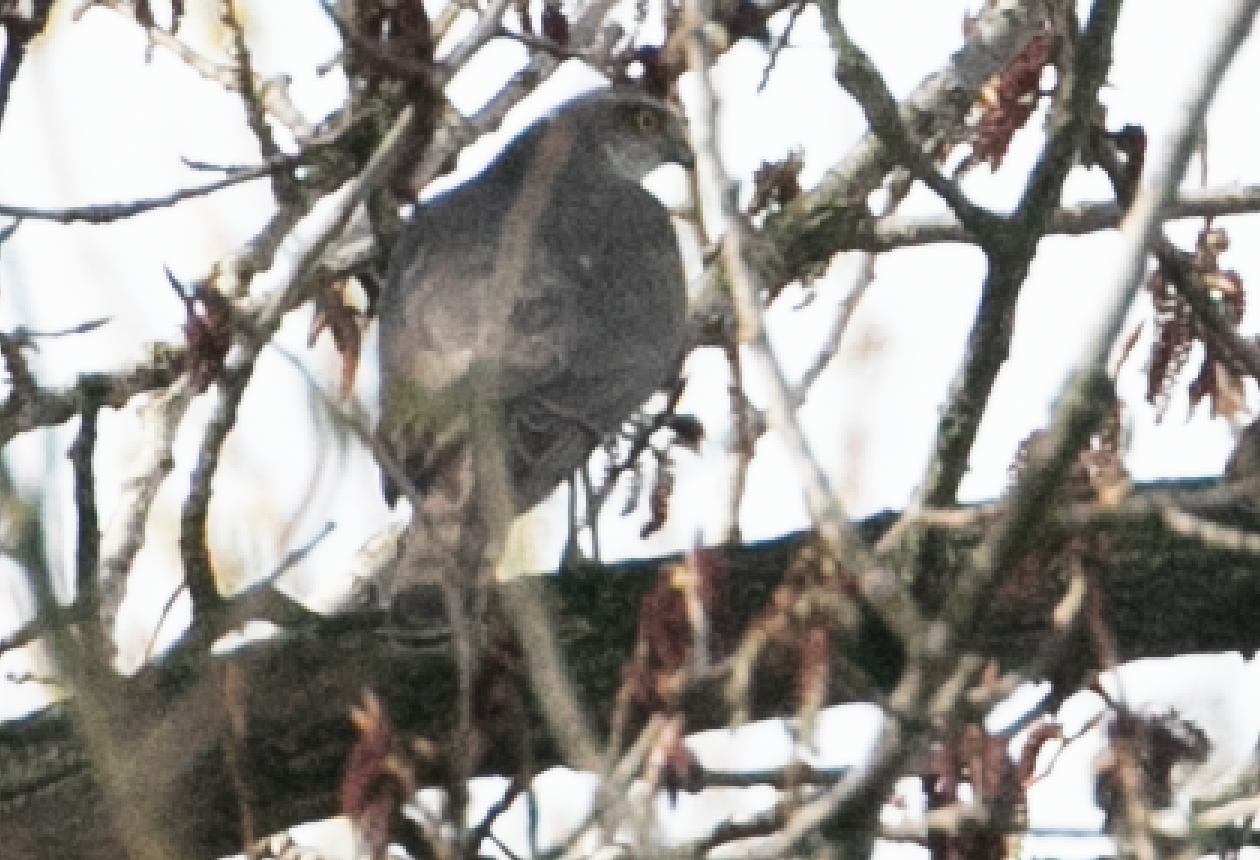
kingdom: Animalia
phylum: Chordata
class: Aves
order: Accipitriformes
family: Accipitridae
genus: Accipiter
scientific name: Accipiter nisus
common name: Eurasian sparrowhawk
